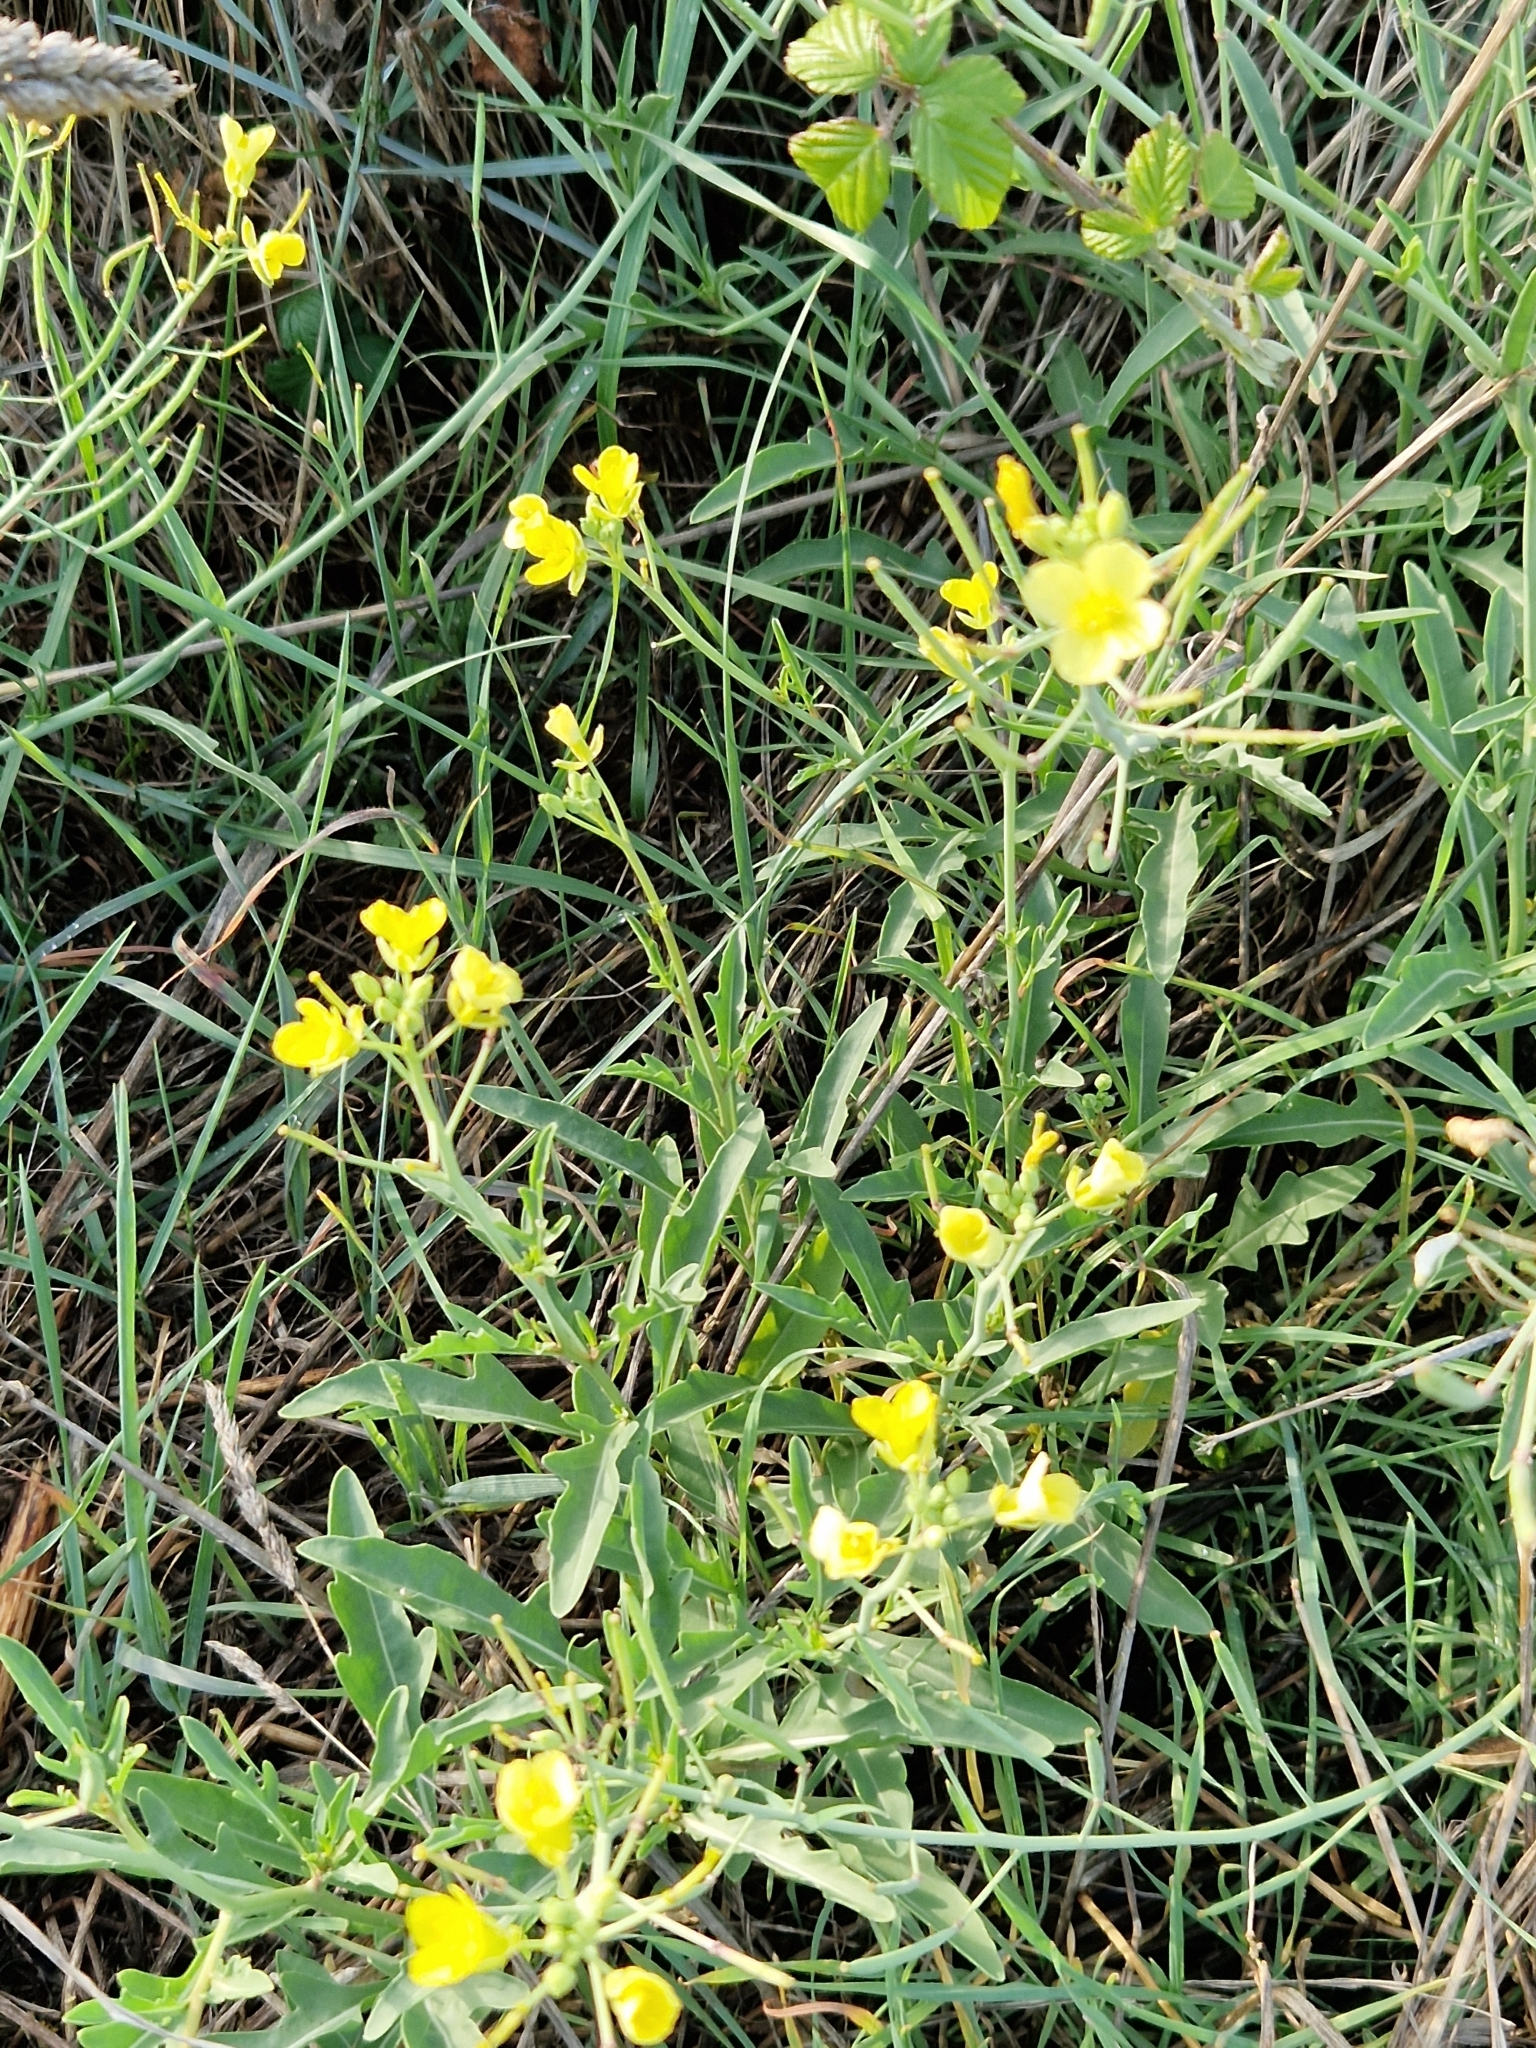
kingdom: Plantae
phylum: Tracheophyta
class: Magnoliopsida
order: Brassicales
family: Brassicaceae
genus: Diplotaxis
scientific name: Diplotaxis tenuifolia
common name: Perennial wall-rocket
